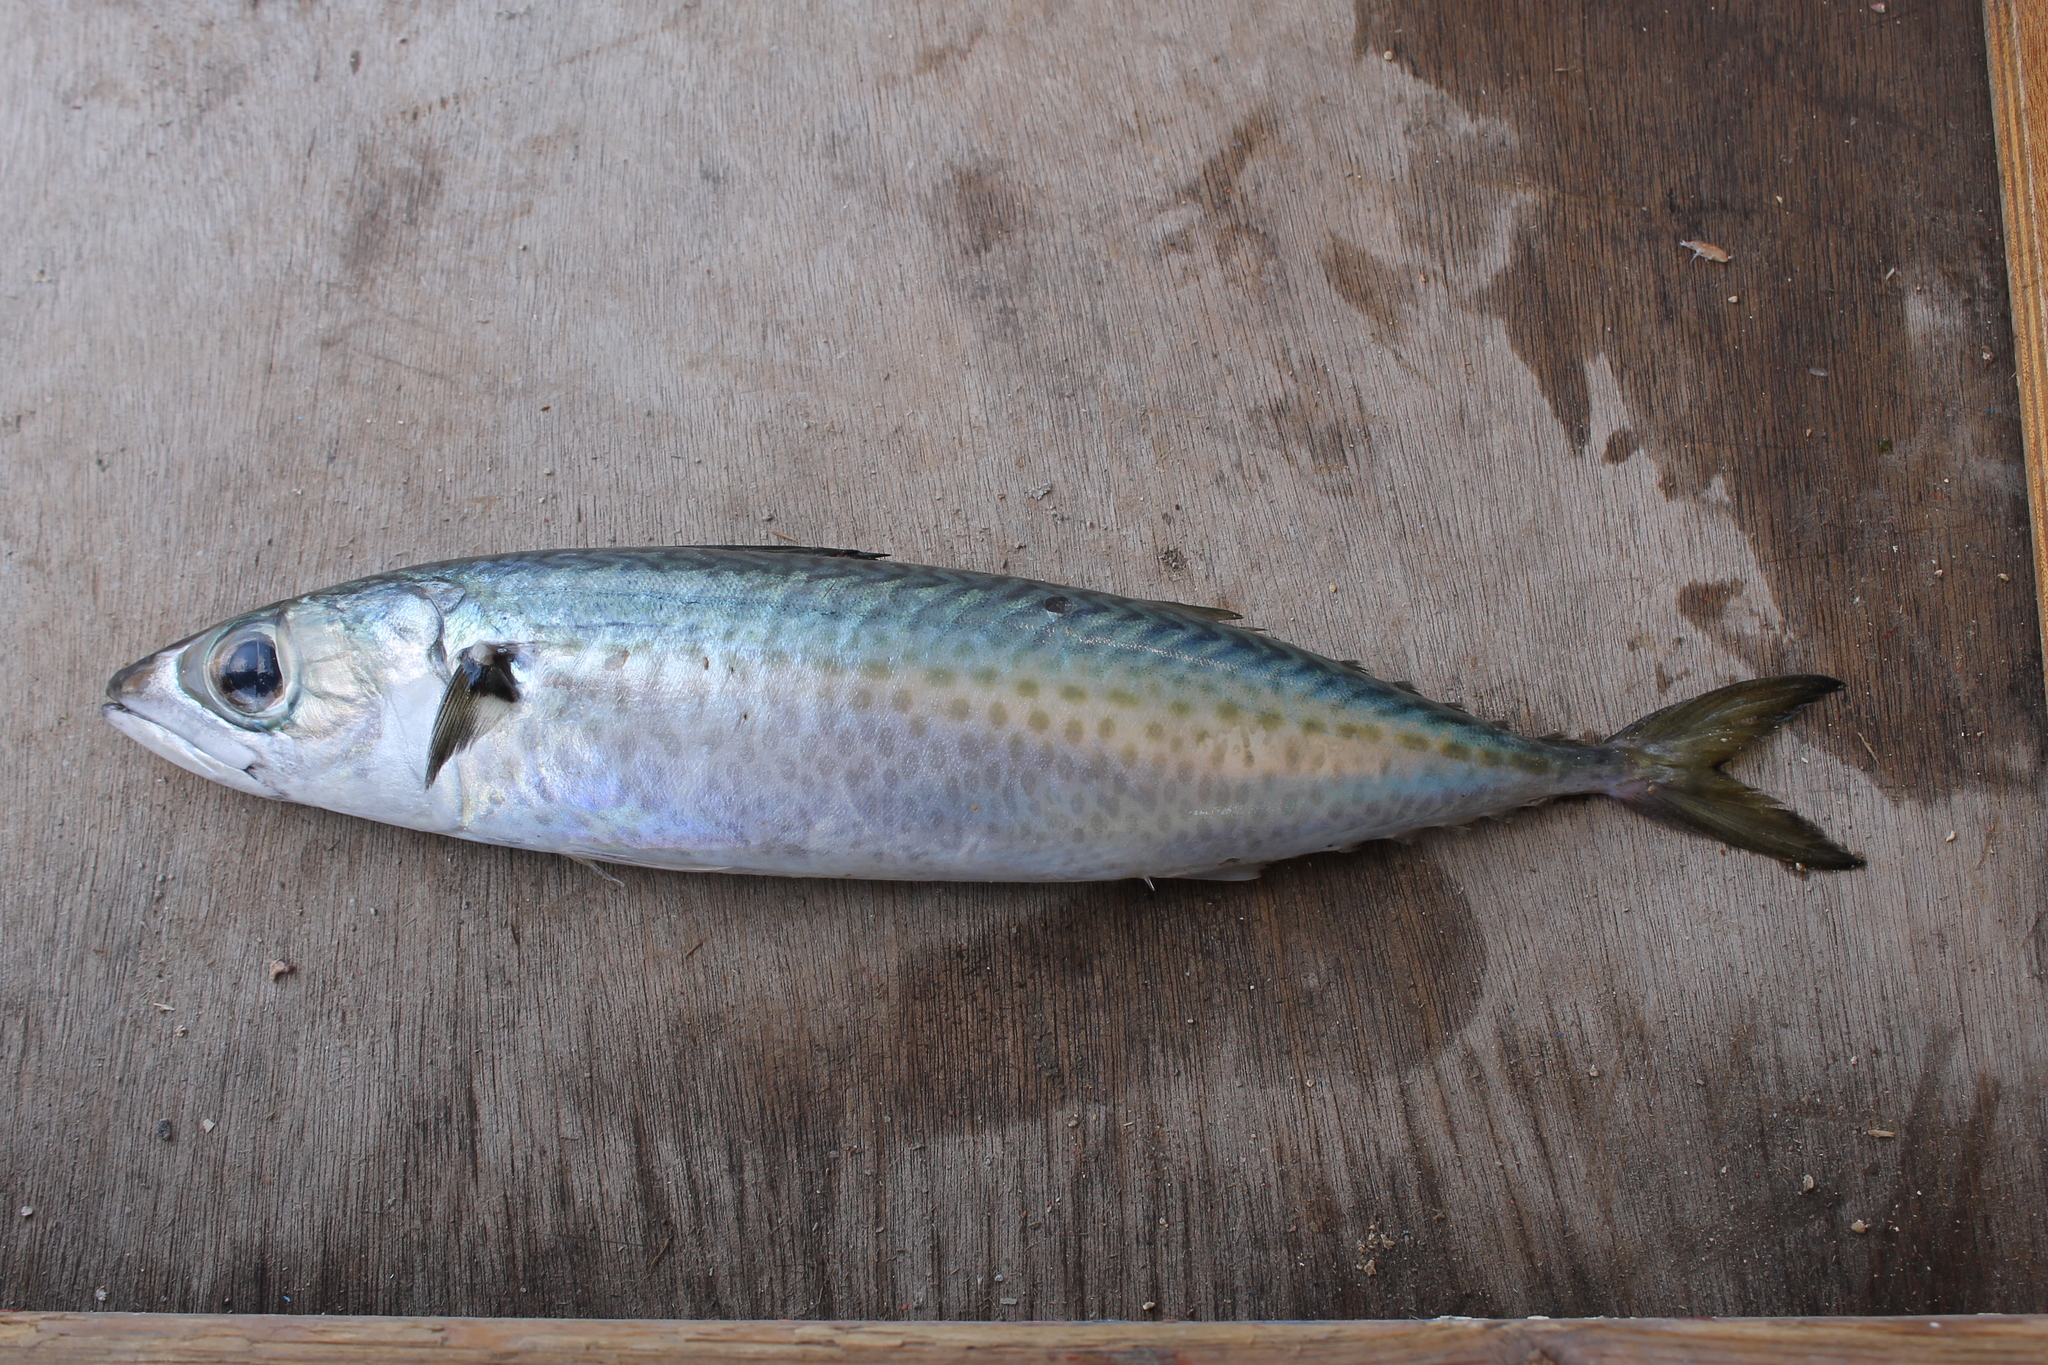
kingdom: Animalia
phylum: Chordata
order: Perciformes
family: Scombridae
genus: Scomber
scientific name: Scomber colias
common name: Atlantic chub mackerel
